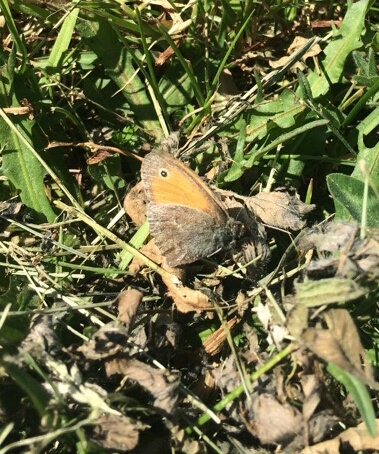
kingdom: Animalia
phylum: Arthropoda
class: Insecta
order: Lepidoptera
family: Nymphalidae
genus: Coenonympha
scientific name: Coenonympha pamphilus
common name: Small heath
